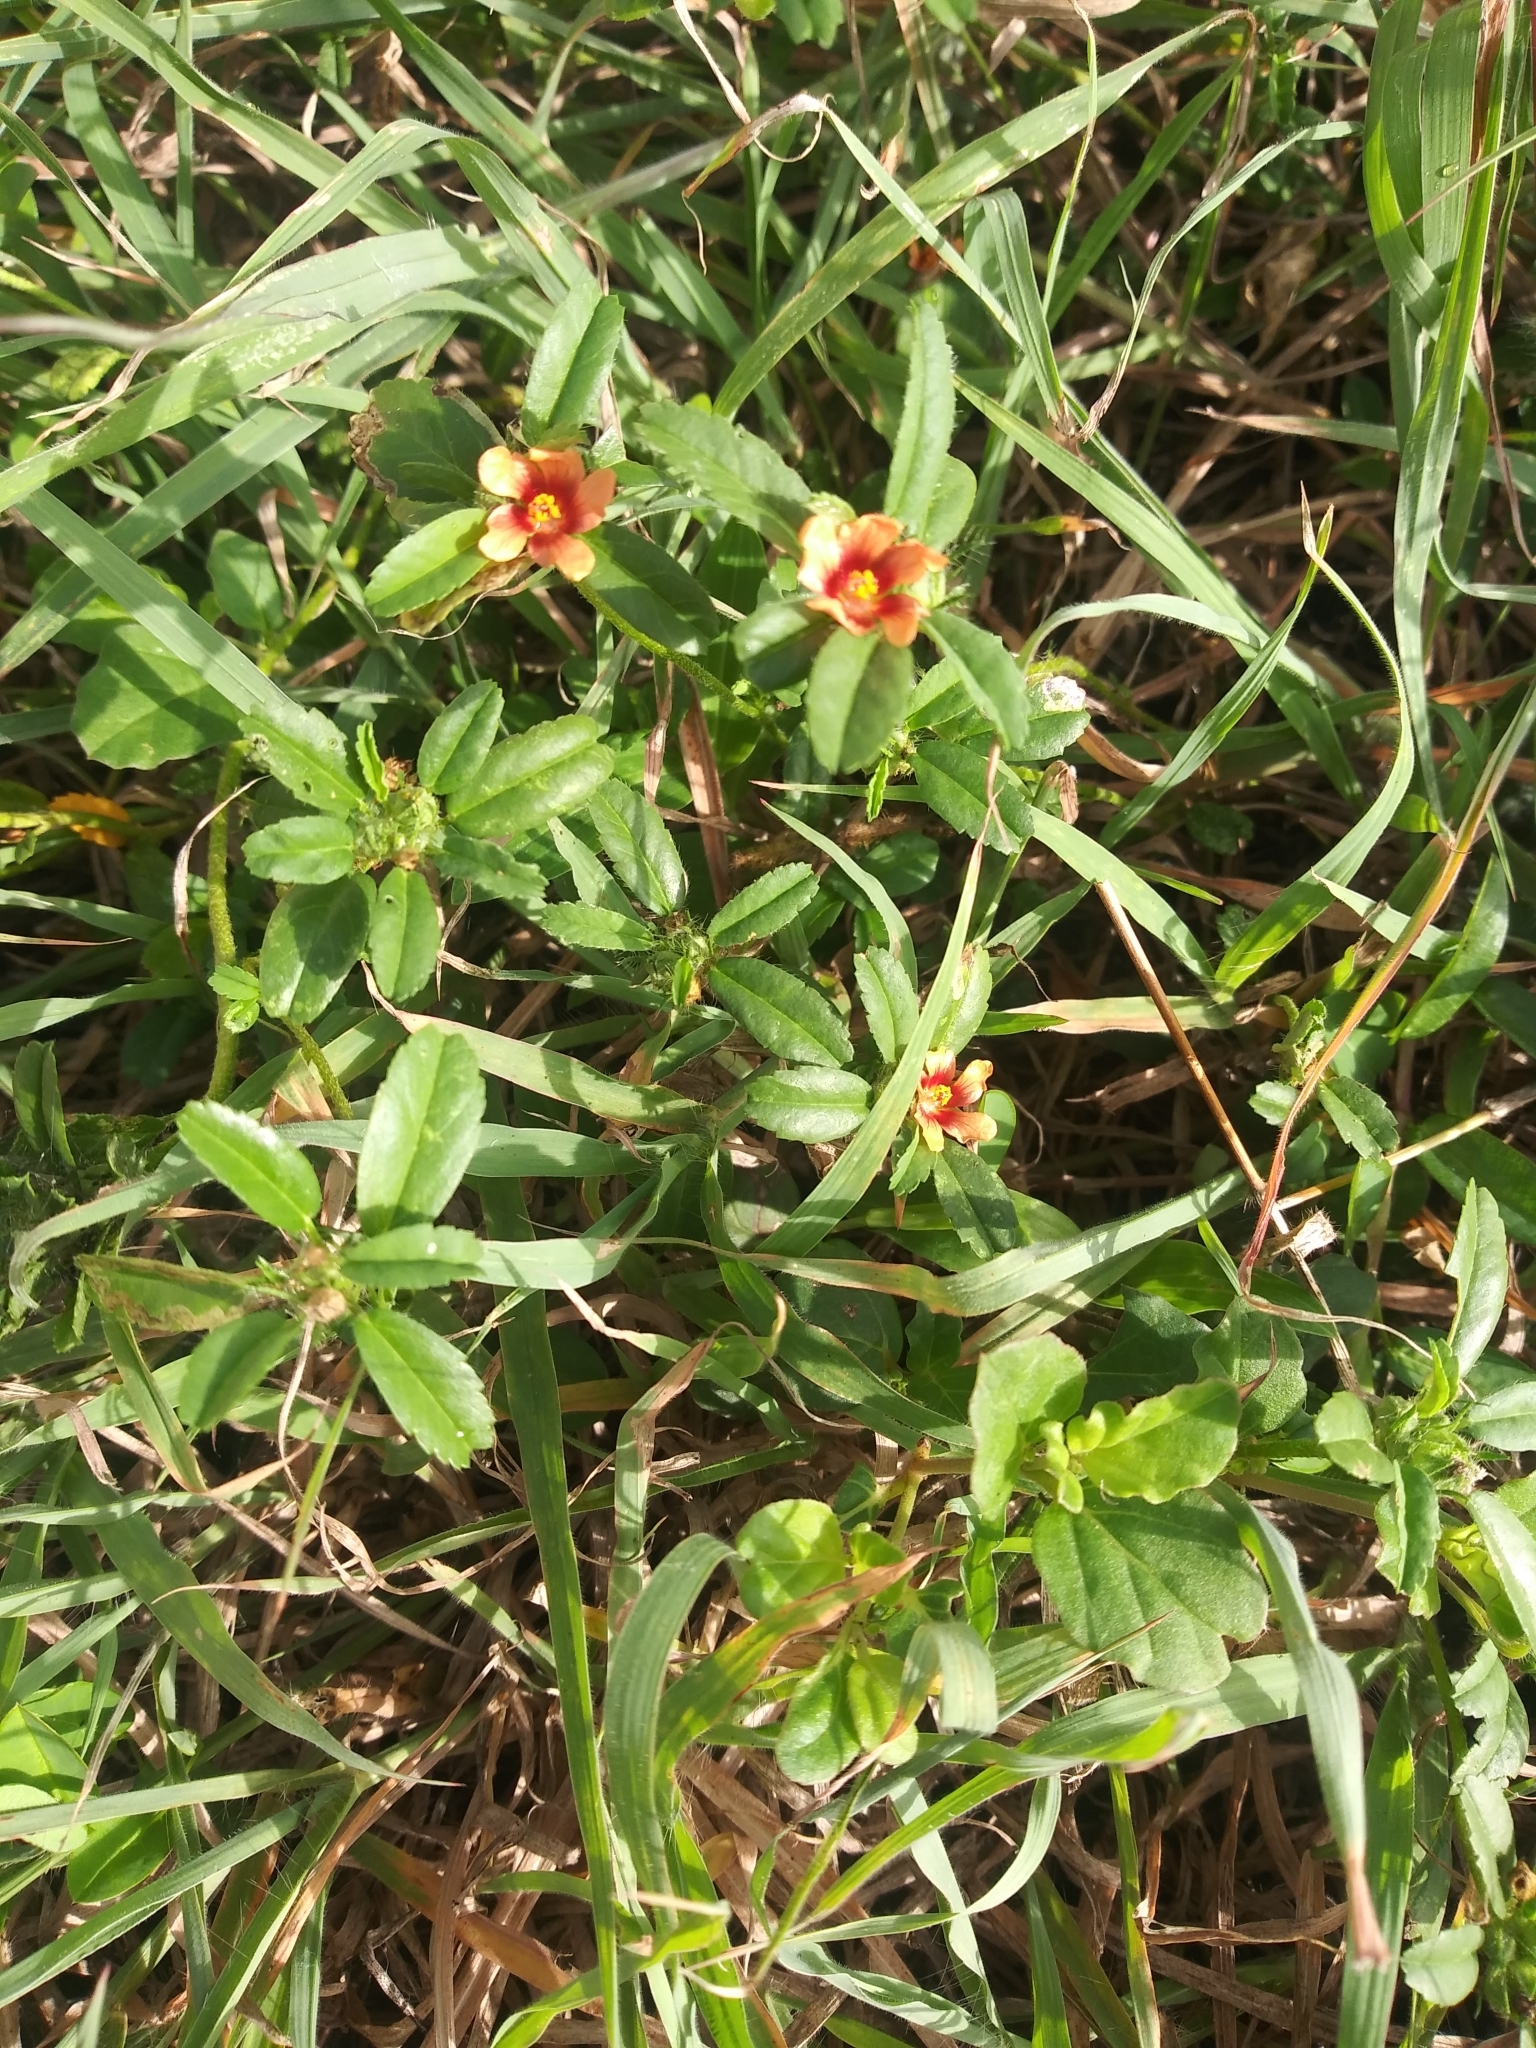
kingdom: Plantae
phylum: Tracheophyta
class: Magnoliopsida
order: Malvales
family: Malvaceae
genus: Sida
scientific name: Sida ciliaris
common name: Bracted fanpetals
